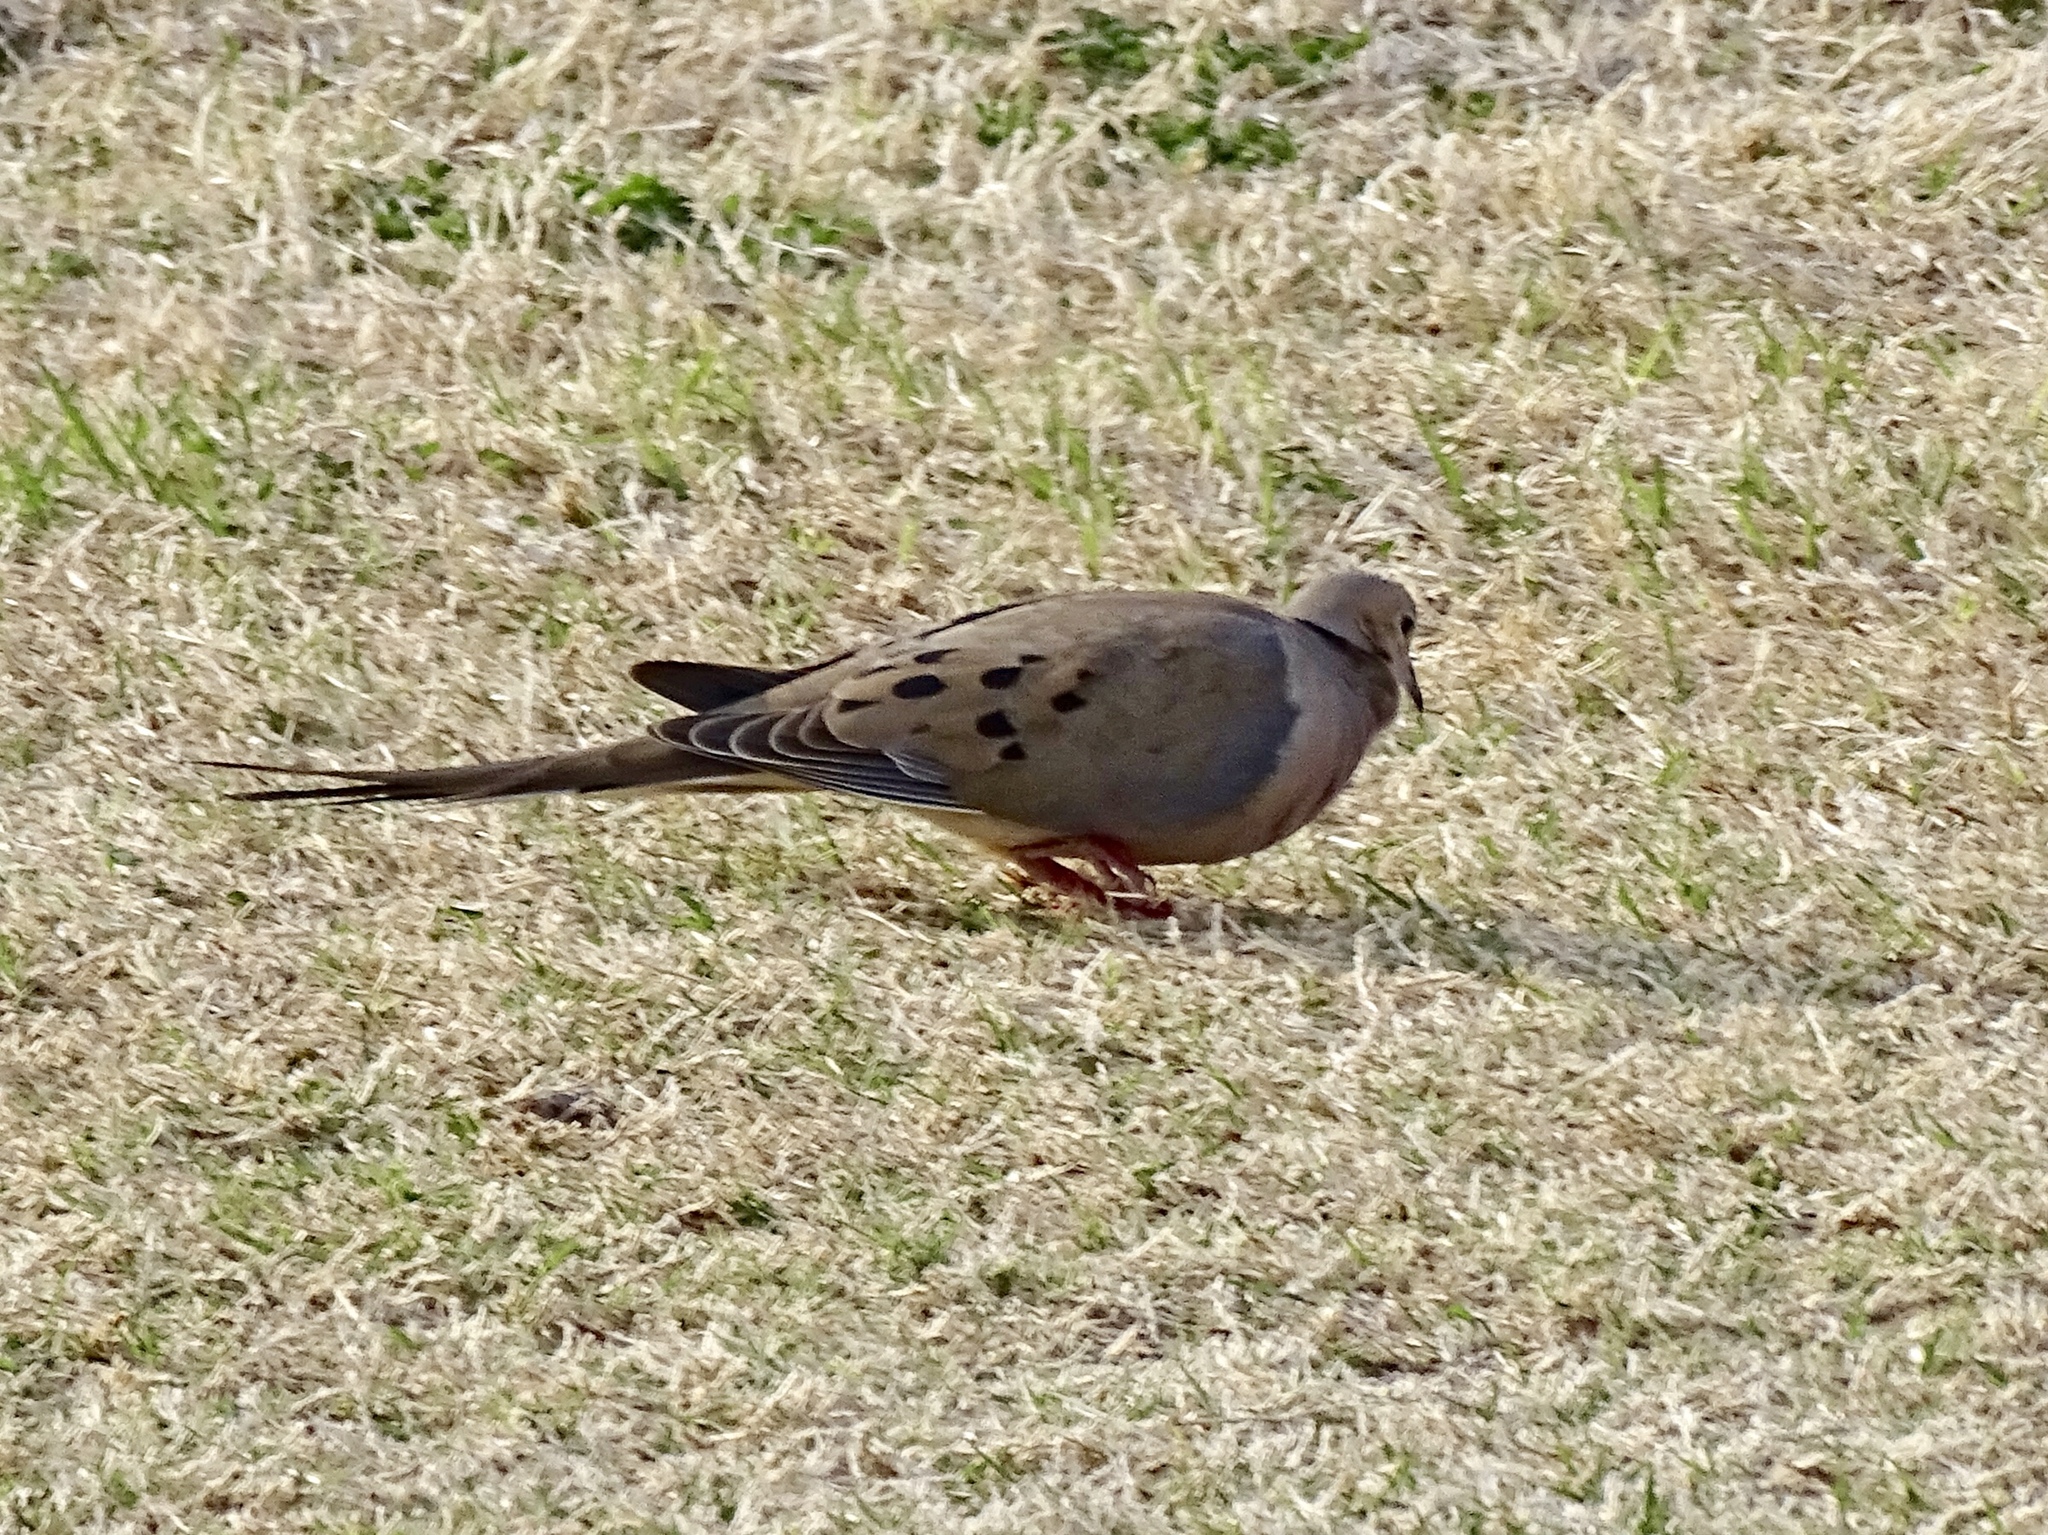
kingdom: Animalia
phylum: Chordata
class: Aves
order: Columbiformes
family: Columbidae
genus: Zenaida
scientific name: Zenaida macroura
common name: Mourning dove
